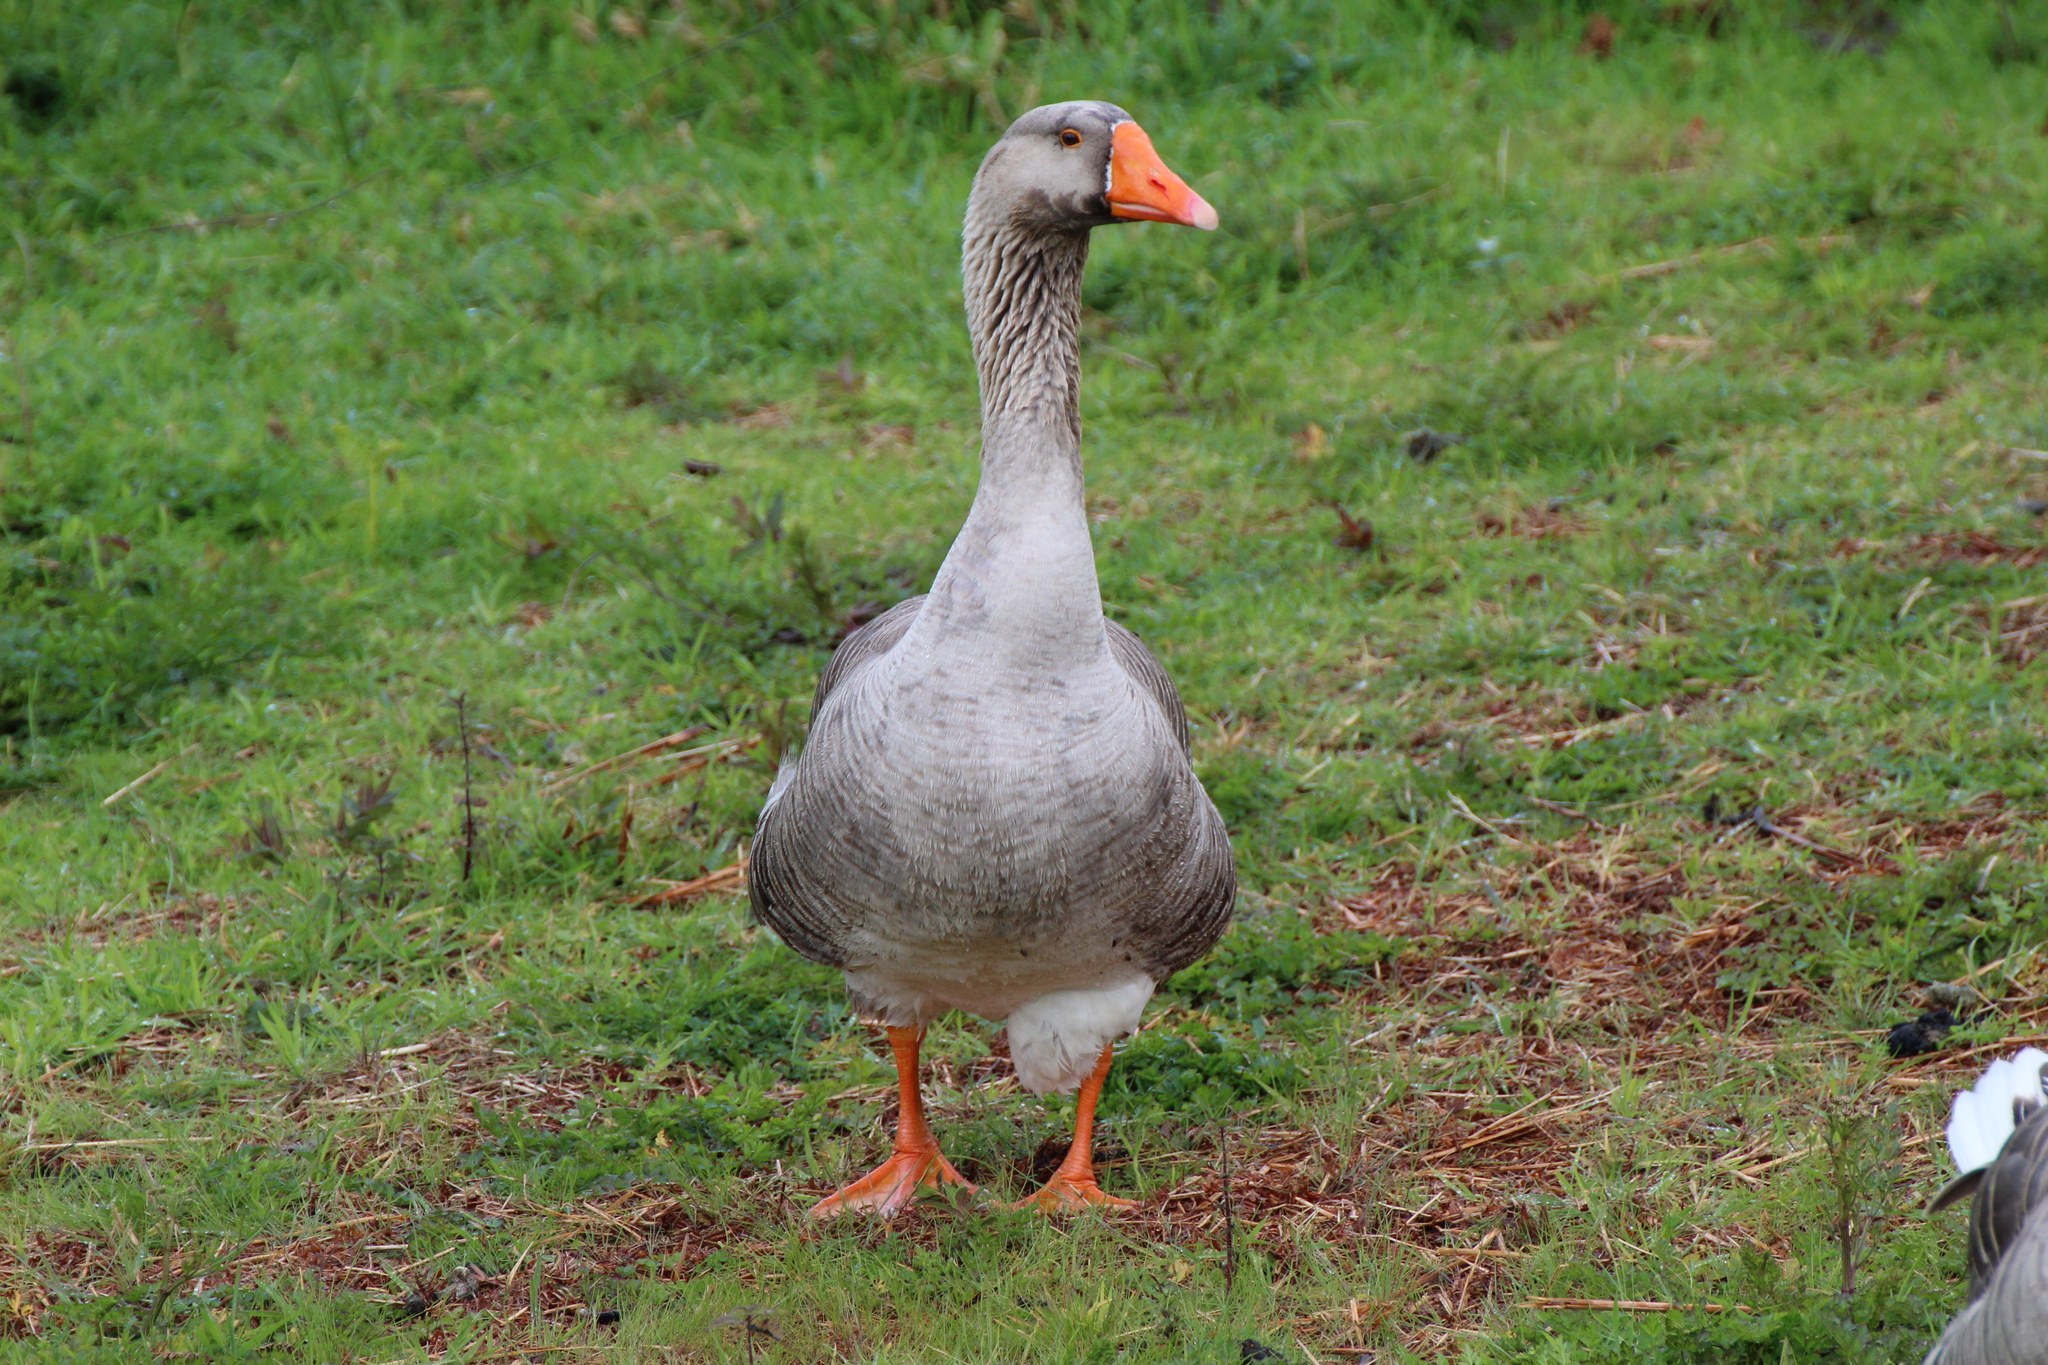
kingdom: Animalia
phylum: Chordata
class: Aves
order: Anseriformes
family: Anatidae
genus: Anser
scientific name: Anser
